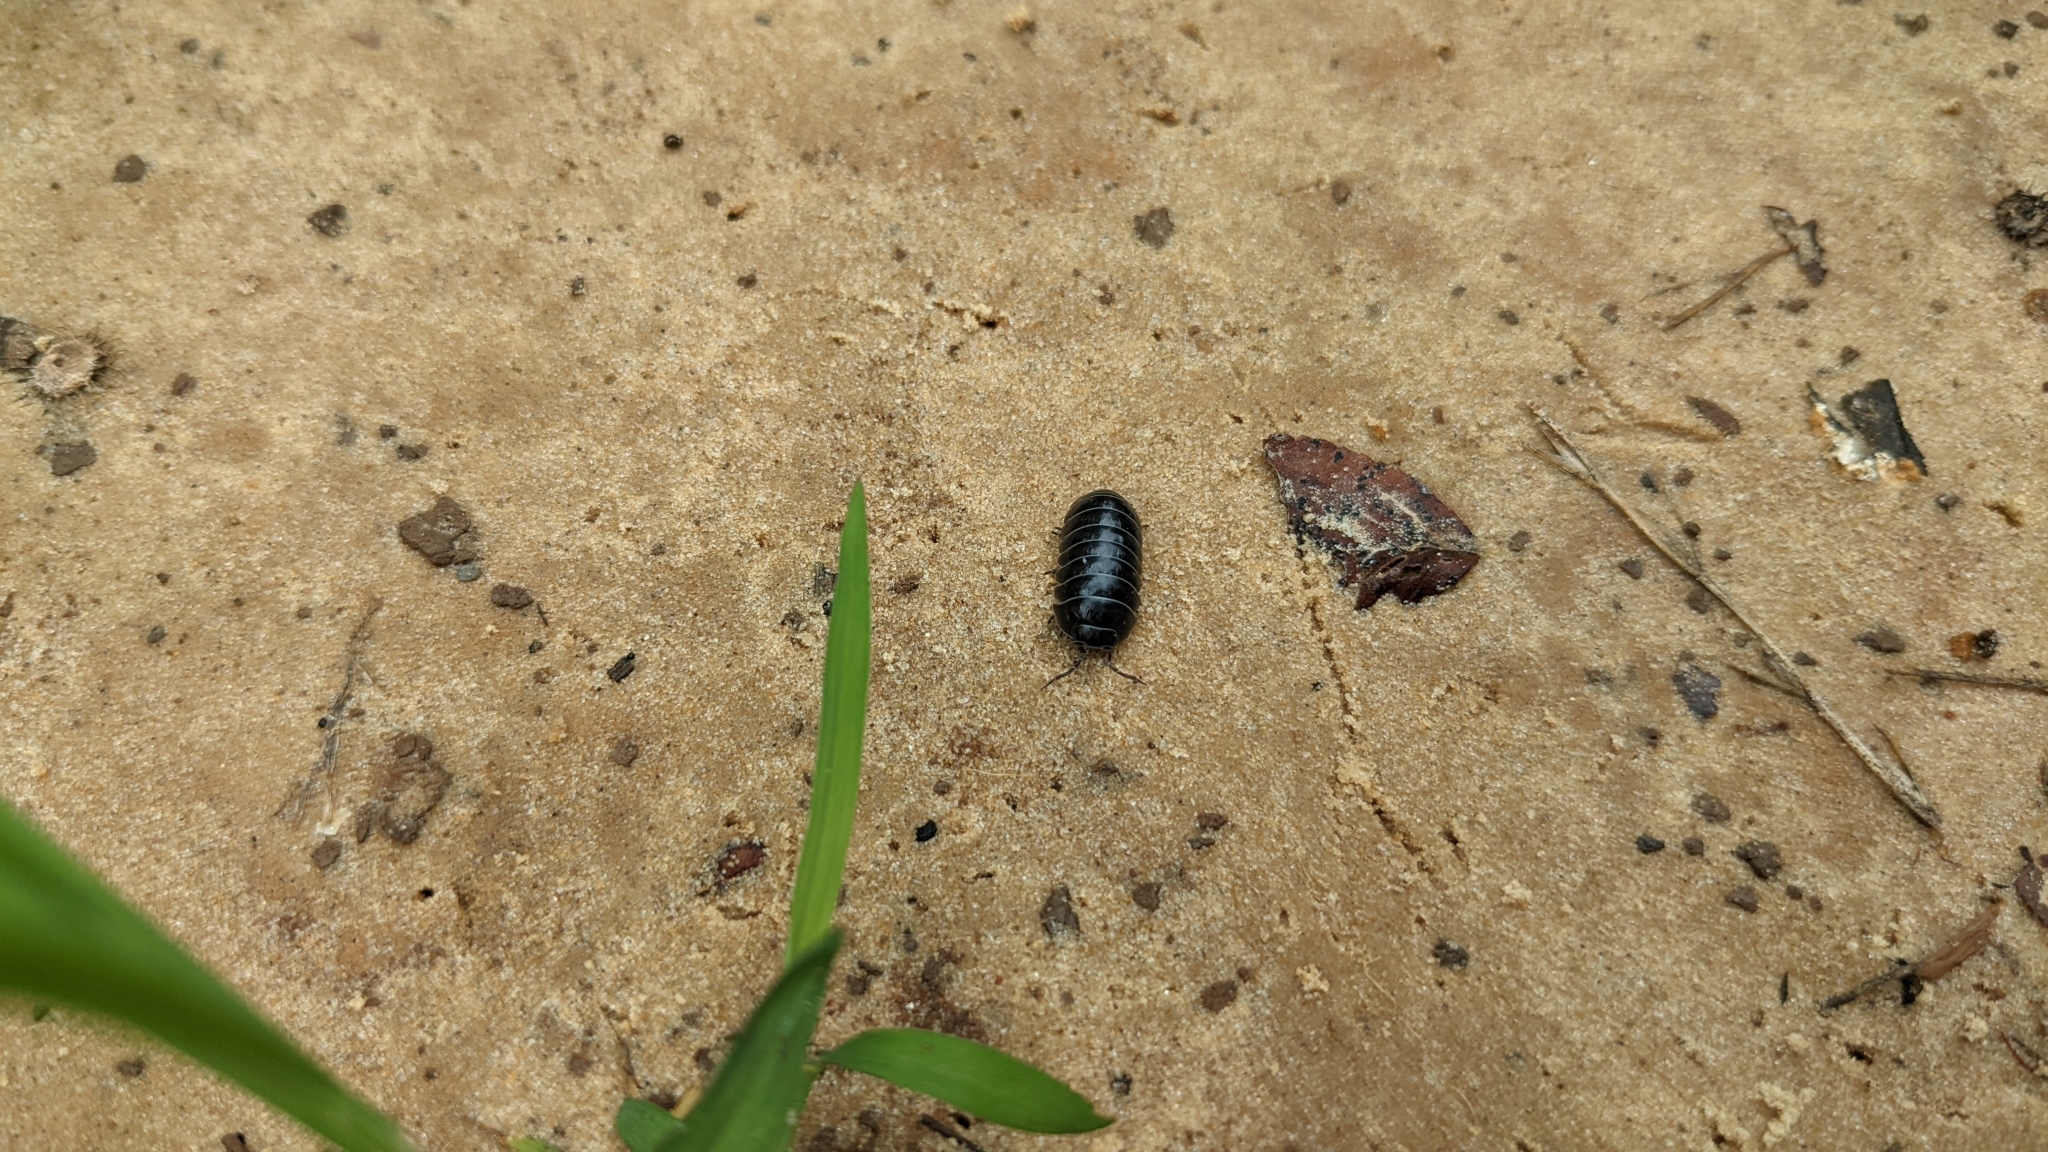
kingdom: Animalia
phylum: Arthropoda
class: Malacostraca
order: Isopoda
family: Armadillidiidae
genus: Armadillidium
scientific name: Armadillidium vulgare
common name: Common pill woodlouse
